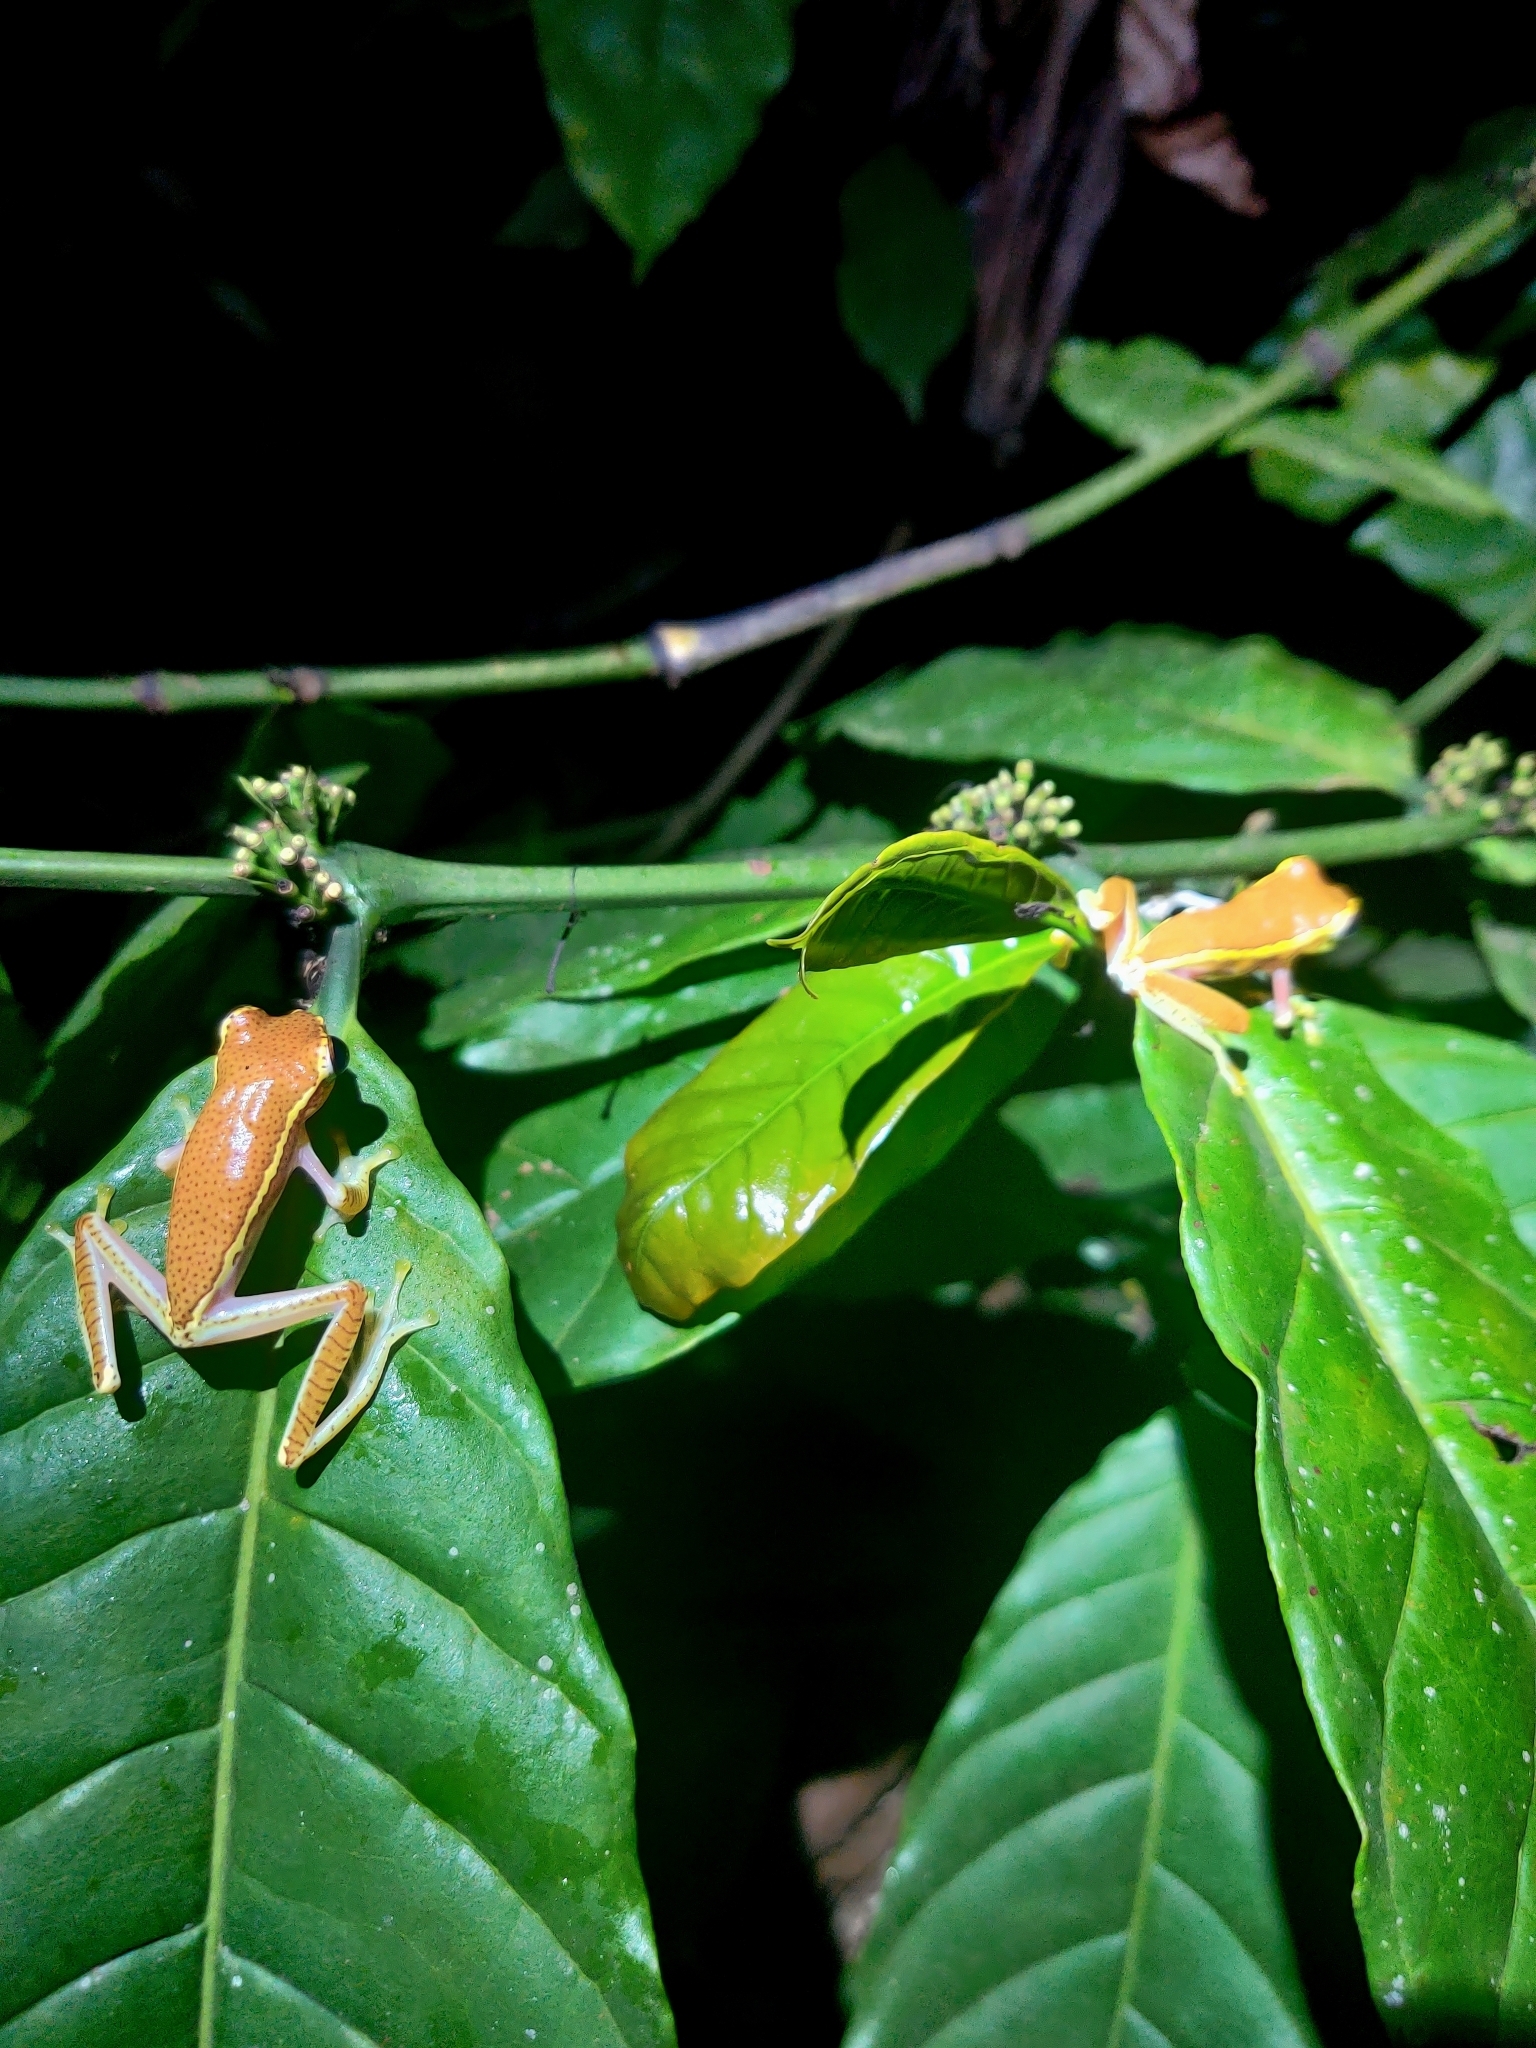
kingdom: Animalia
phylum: Chordata
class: Amphibia
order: Anura
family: Rhacophoridae
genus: Rhacophorus
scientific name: Rhacophorus lateralis
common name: Boulenger's tree frog
